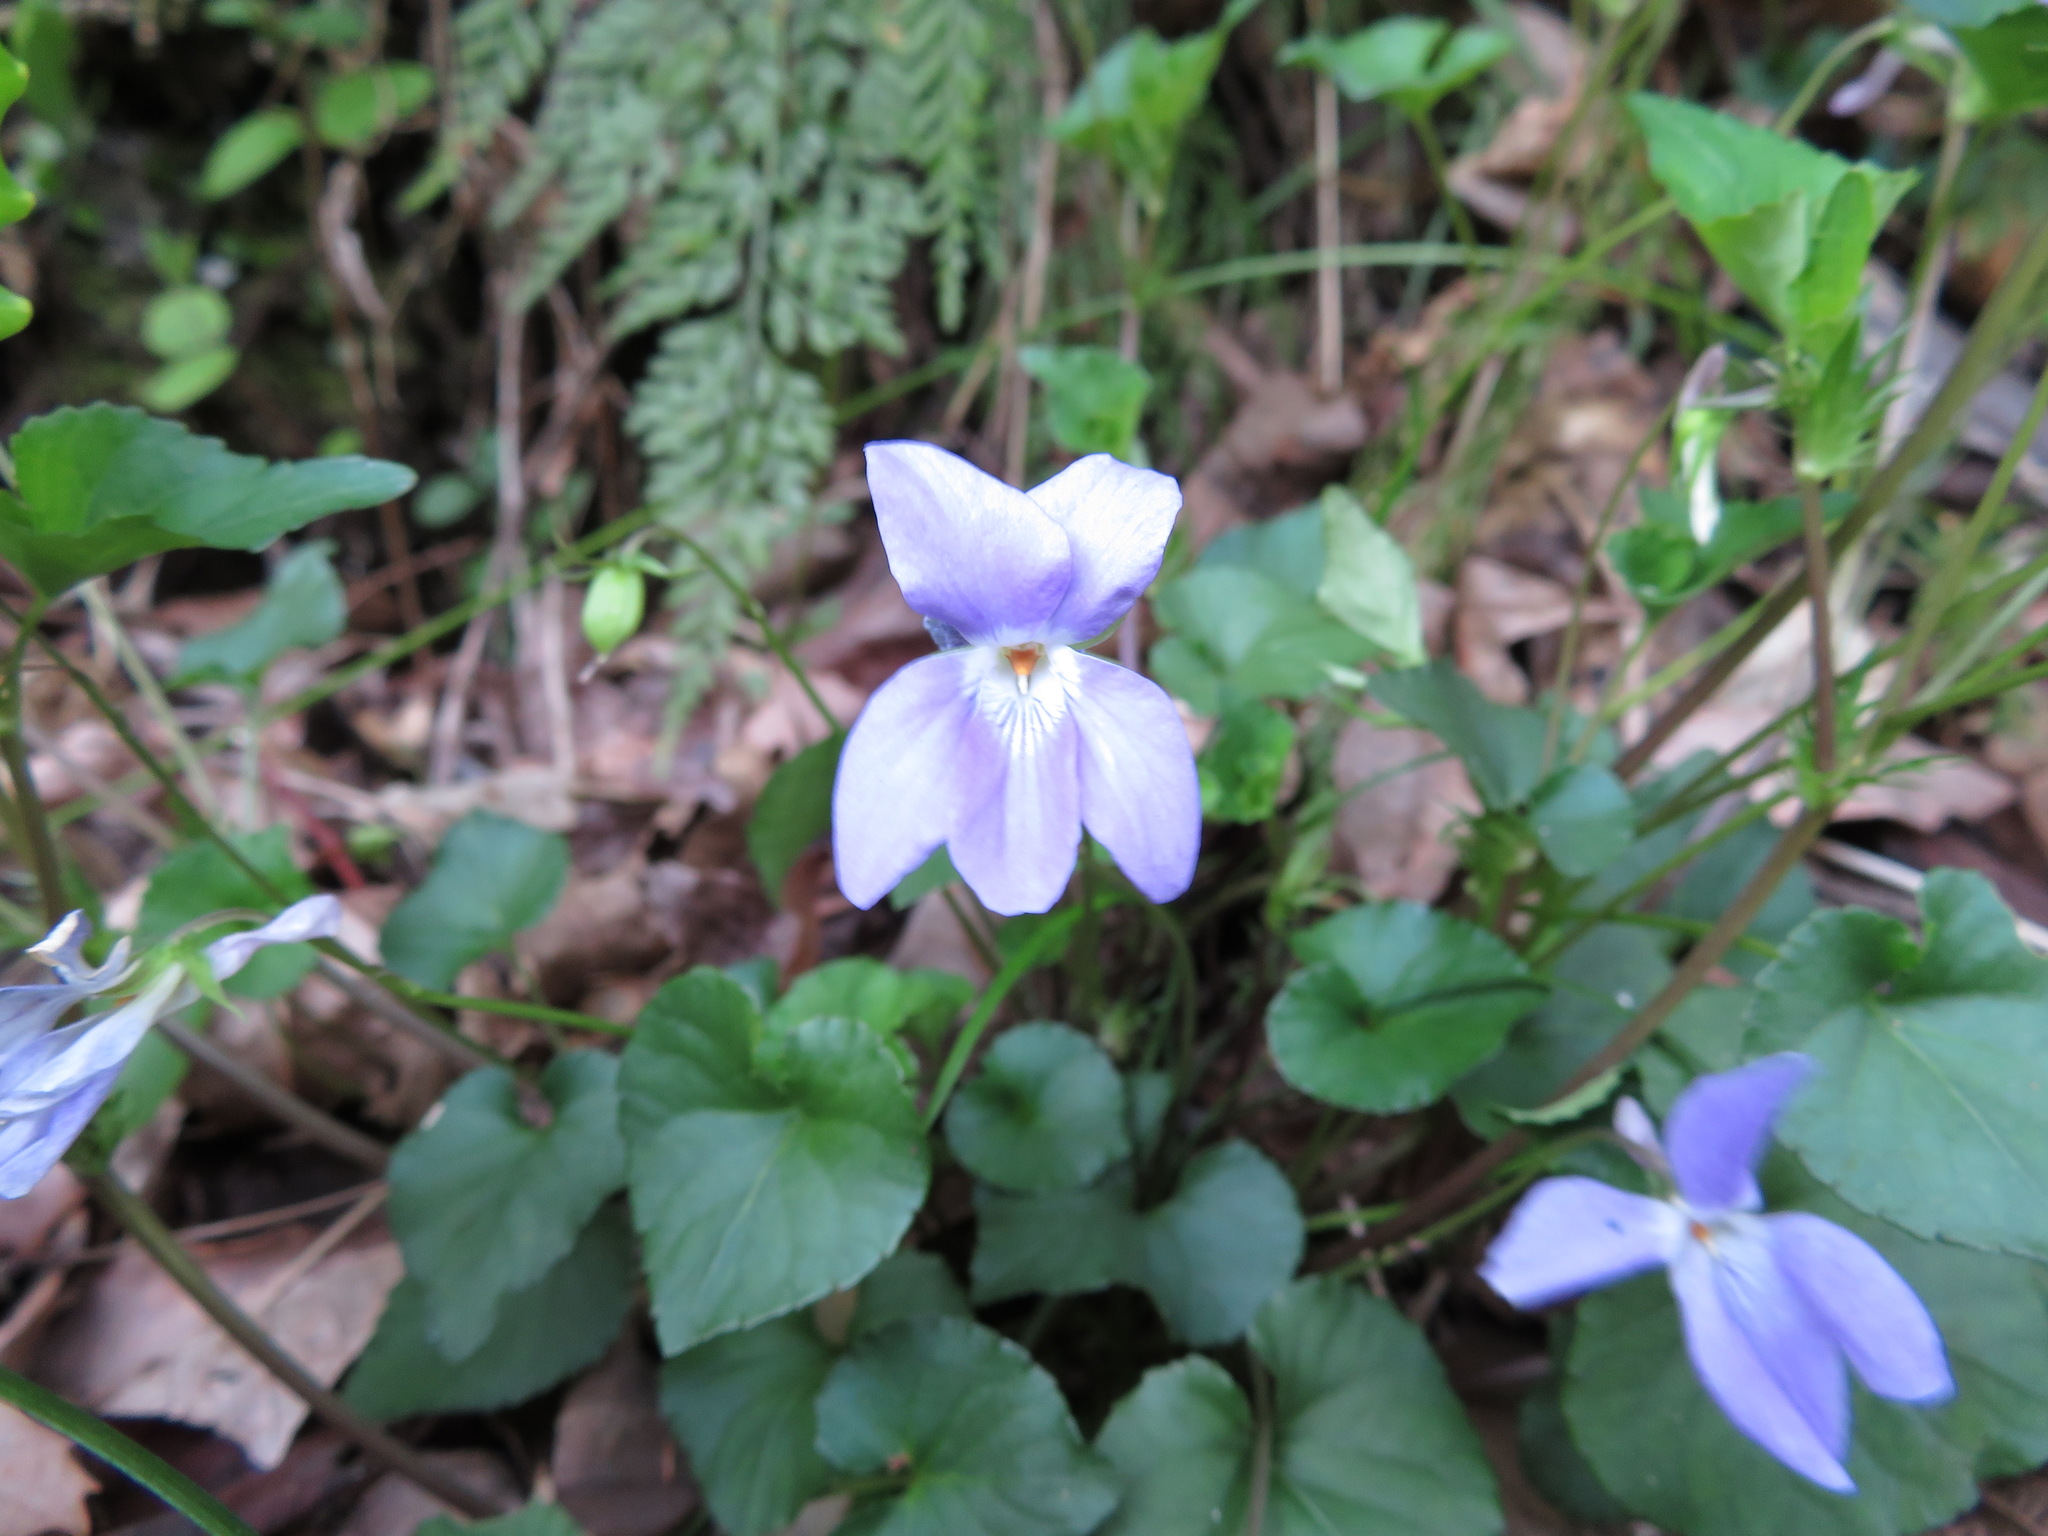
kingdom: Plantae
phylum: Tracheophyta
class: Magnoliopsida
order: Malpighiales
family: Violaceae
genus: Viola
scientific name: Viola grypoceras
